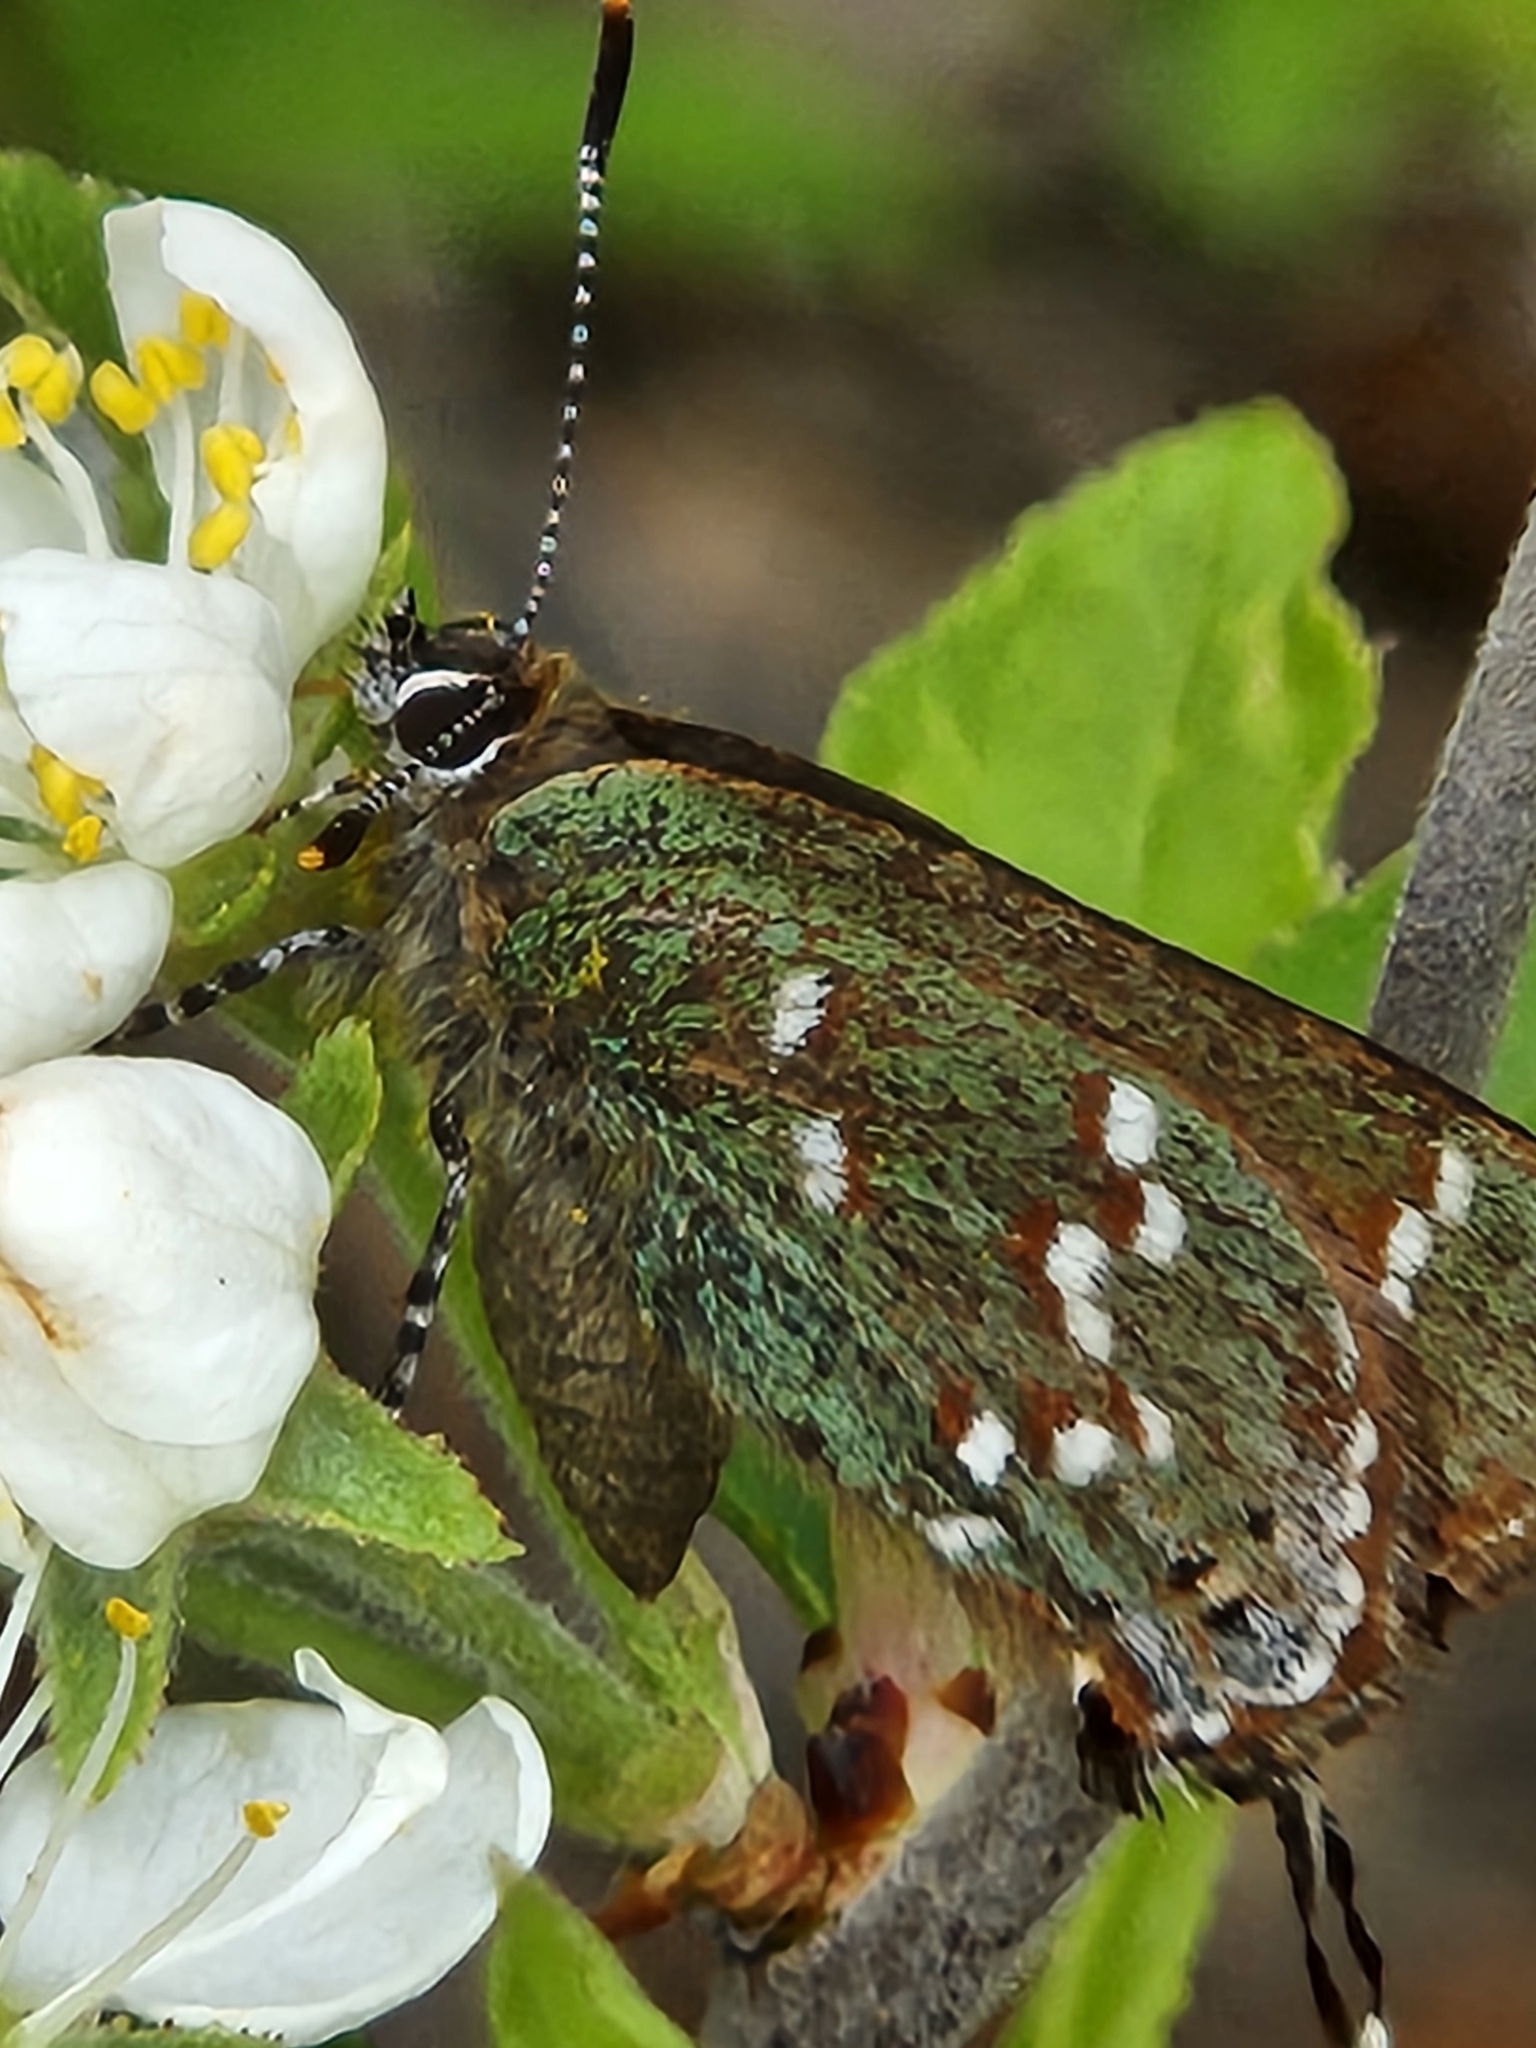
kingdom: Animalia
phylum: Arthropoda
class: Insecta
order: Lepidoptera
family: Lycaenidae
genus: Mitoura
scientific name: Mitoura gryneus
